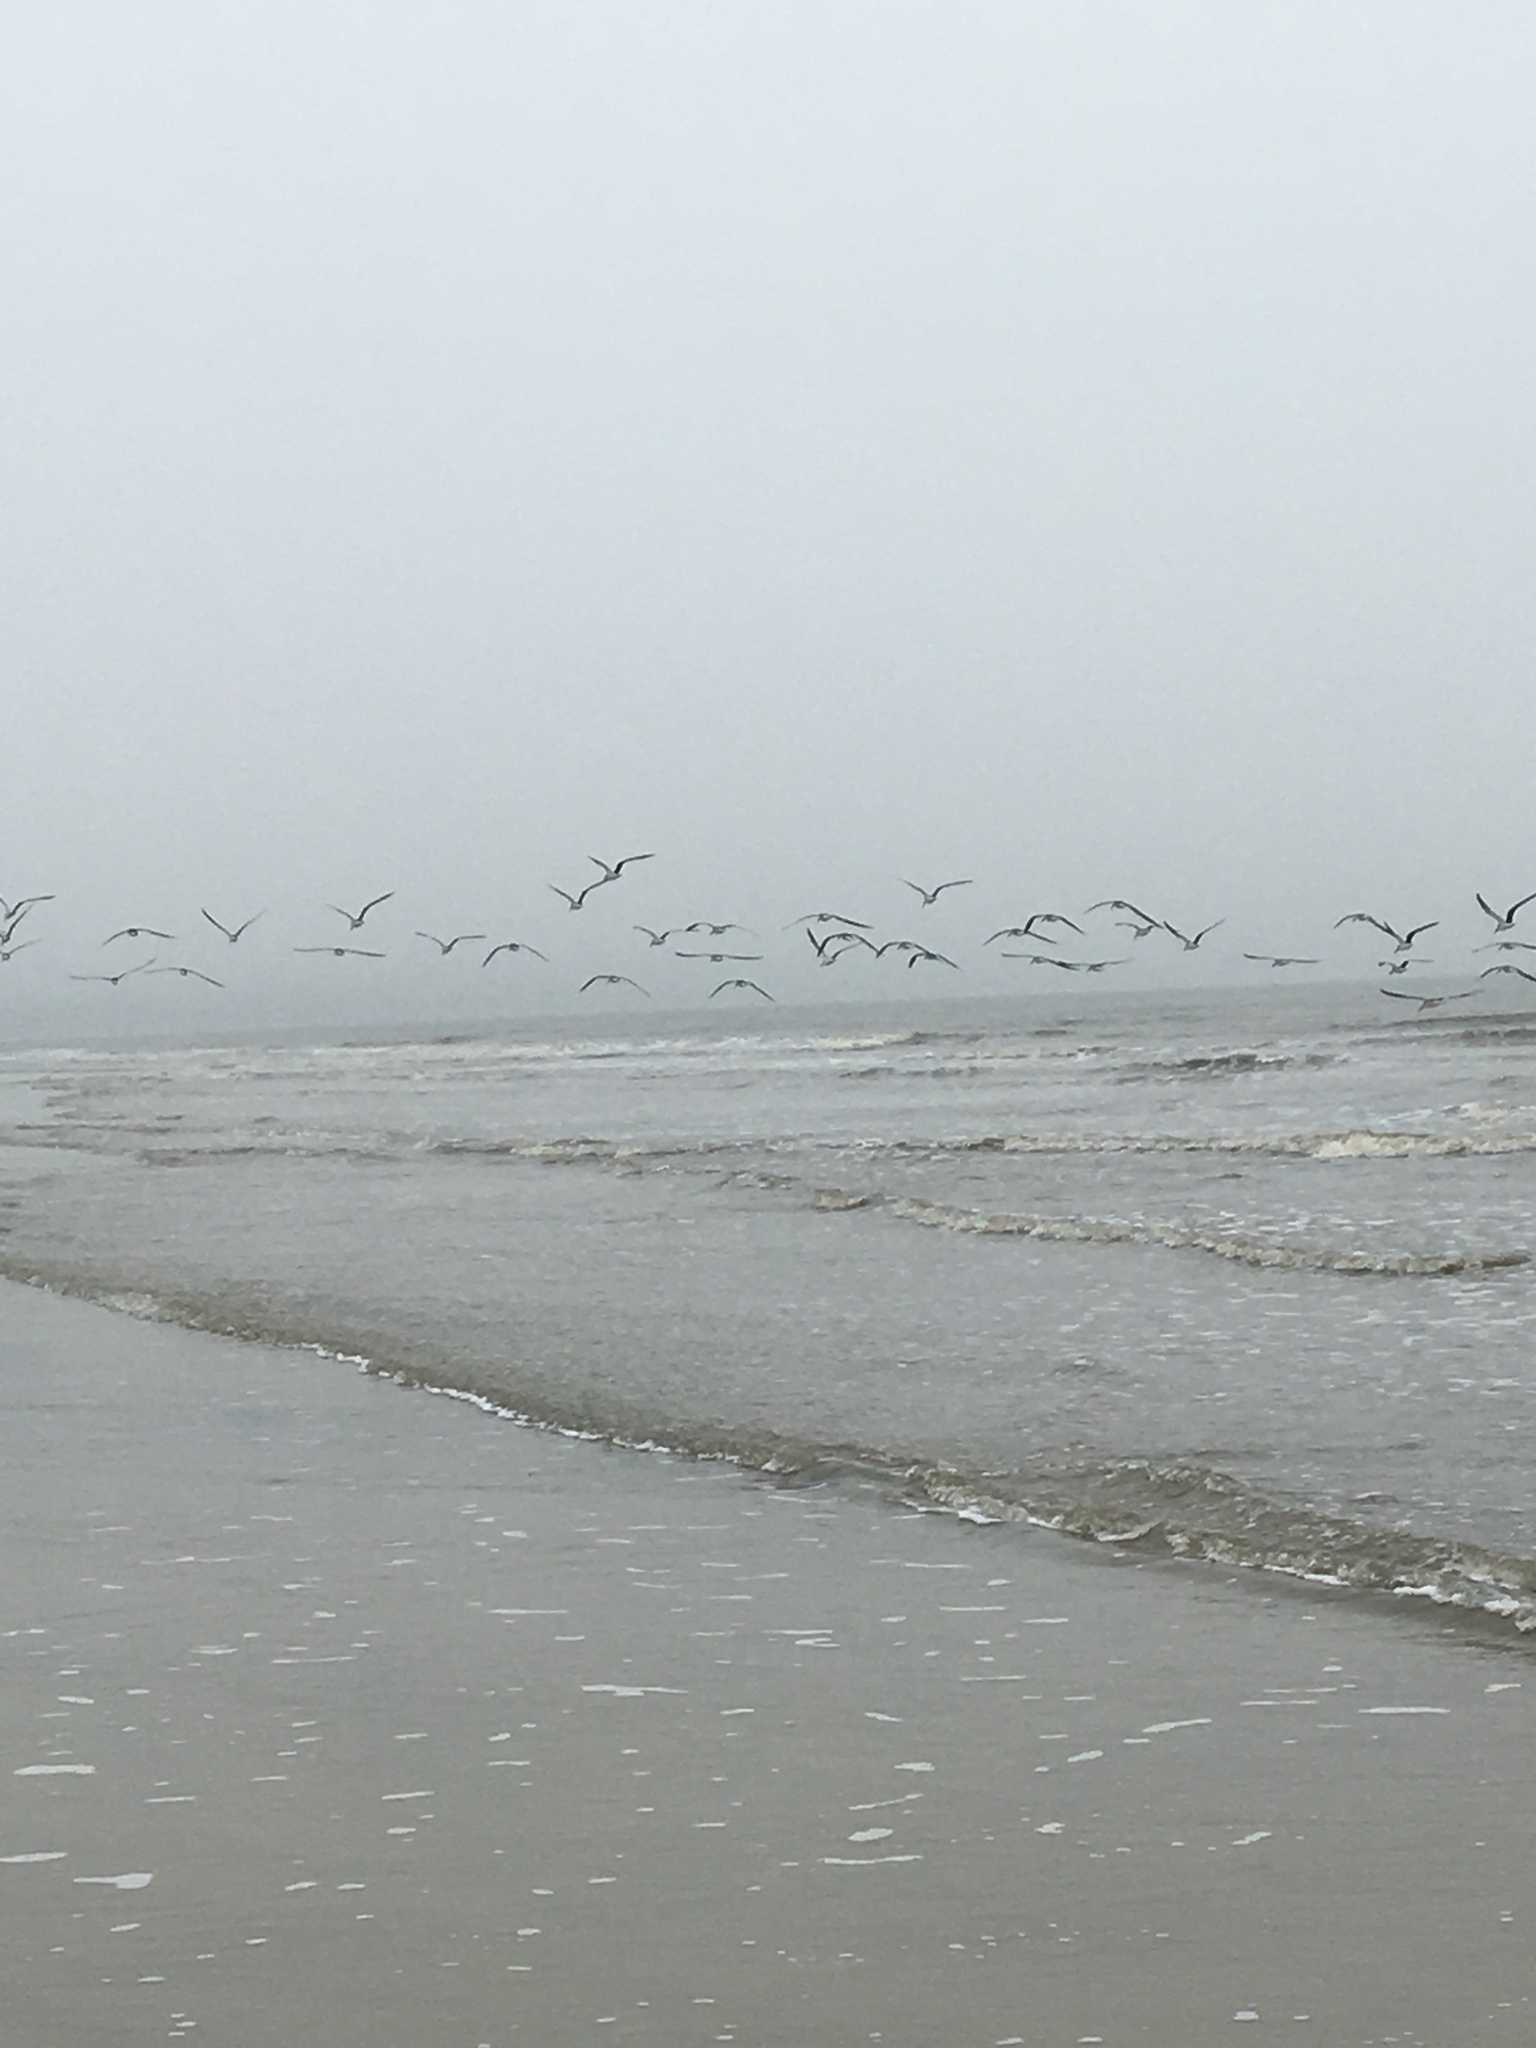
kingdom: Animalia
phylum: Chordata
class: Aves
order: Charadriiformes
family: Laridae
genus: Rynchops
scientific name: Rynchops niger
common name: Black skimmer
